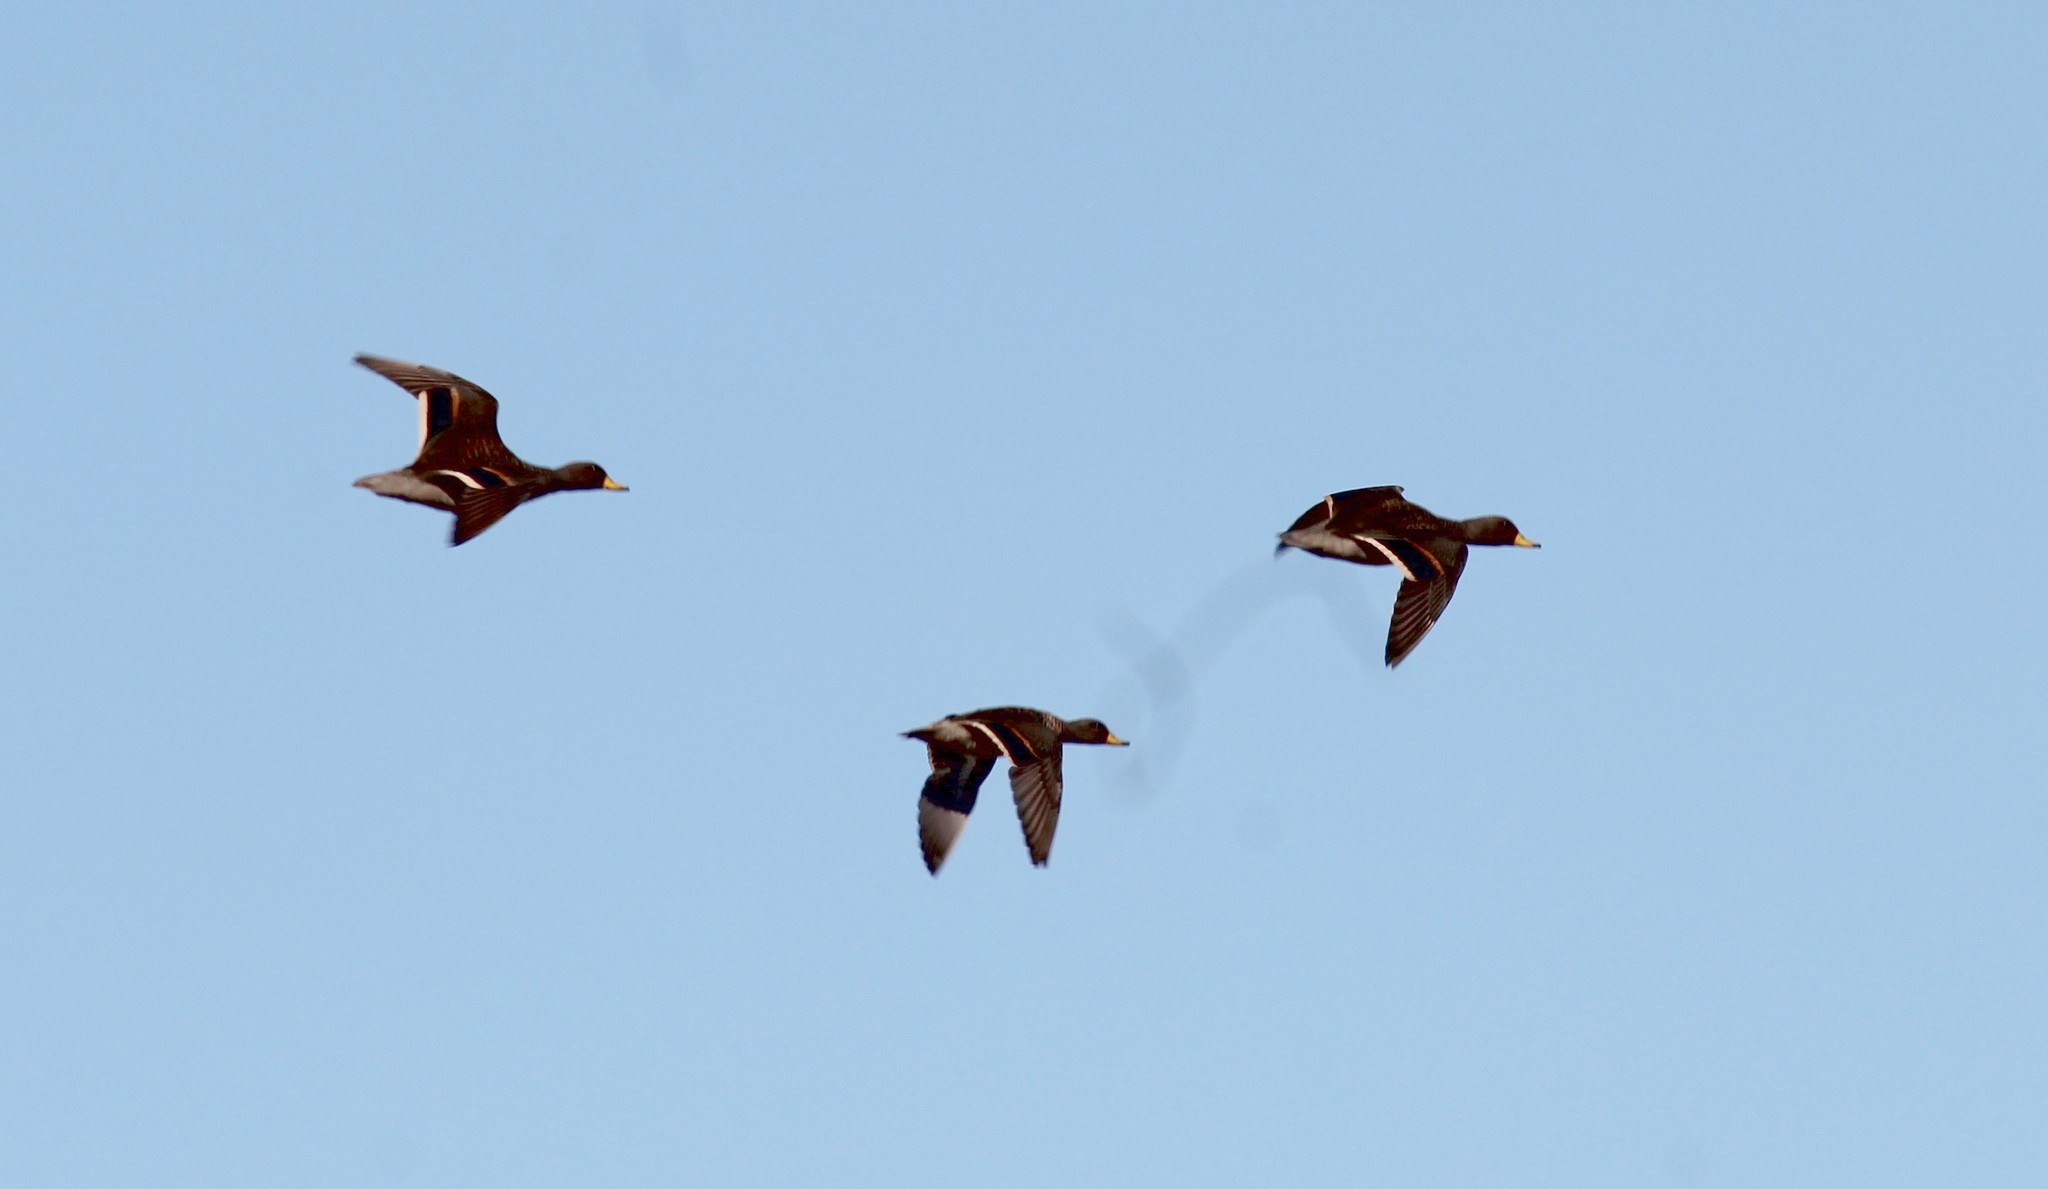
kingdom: Animalia
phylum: Chordata
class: Aves
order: Anseriformes
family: Anatidae
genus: Anas
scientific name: Anas flavirostris
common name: Yellow-billed teal
